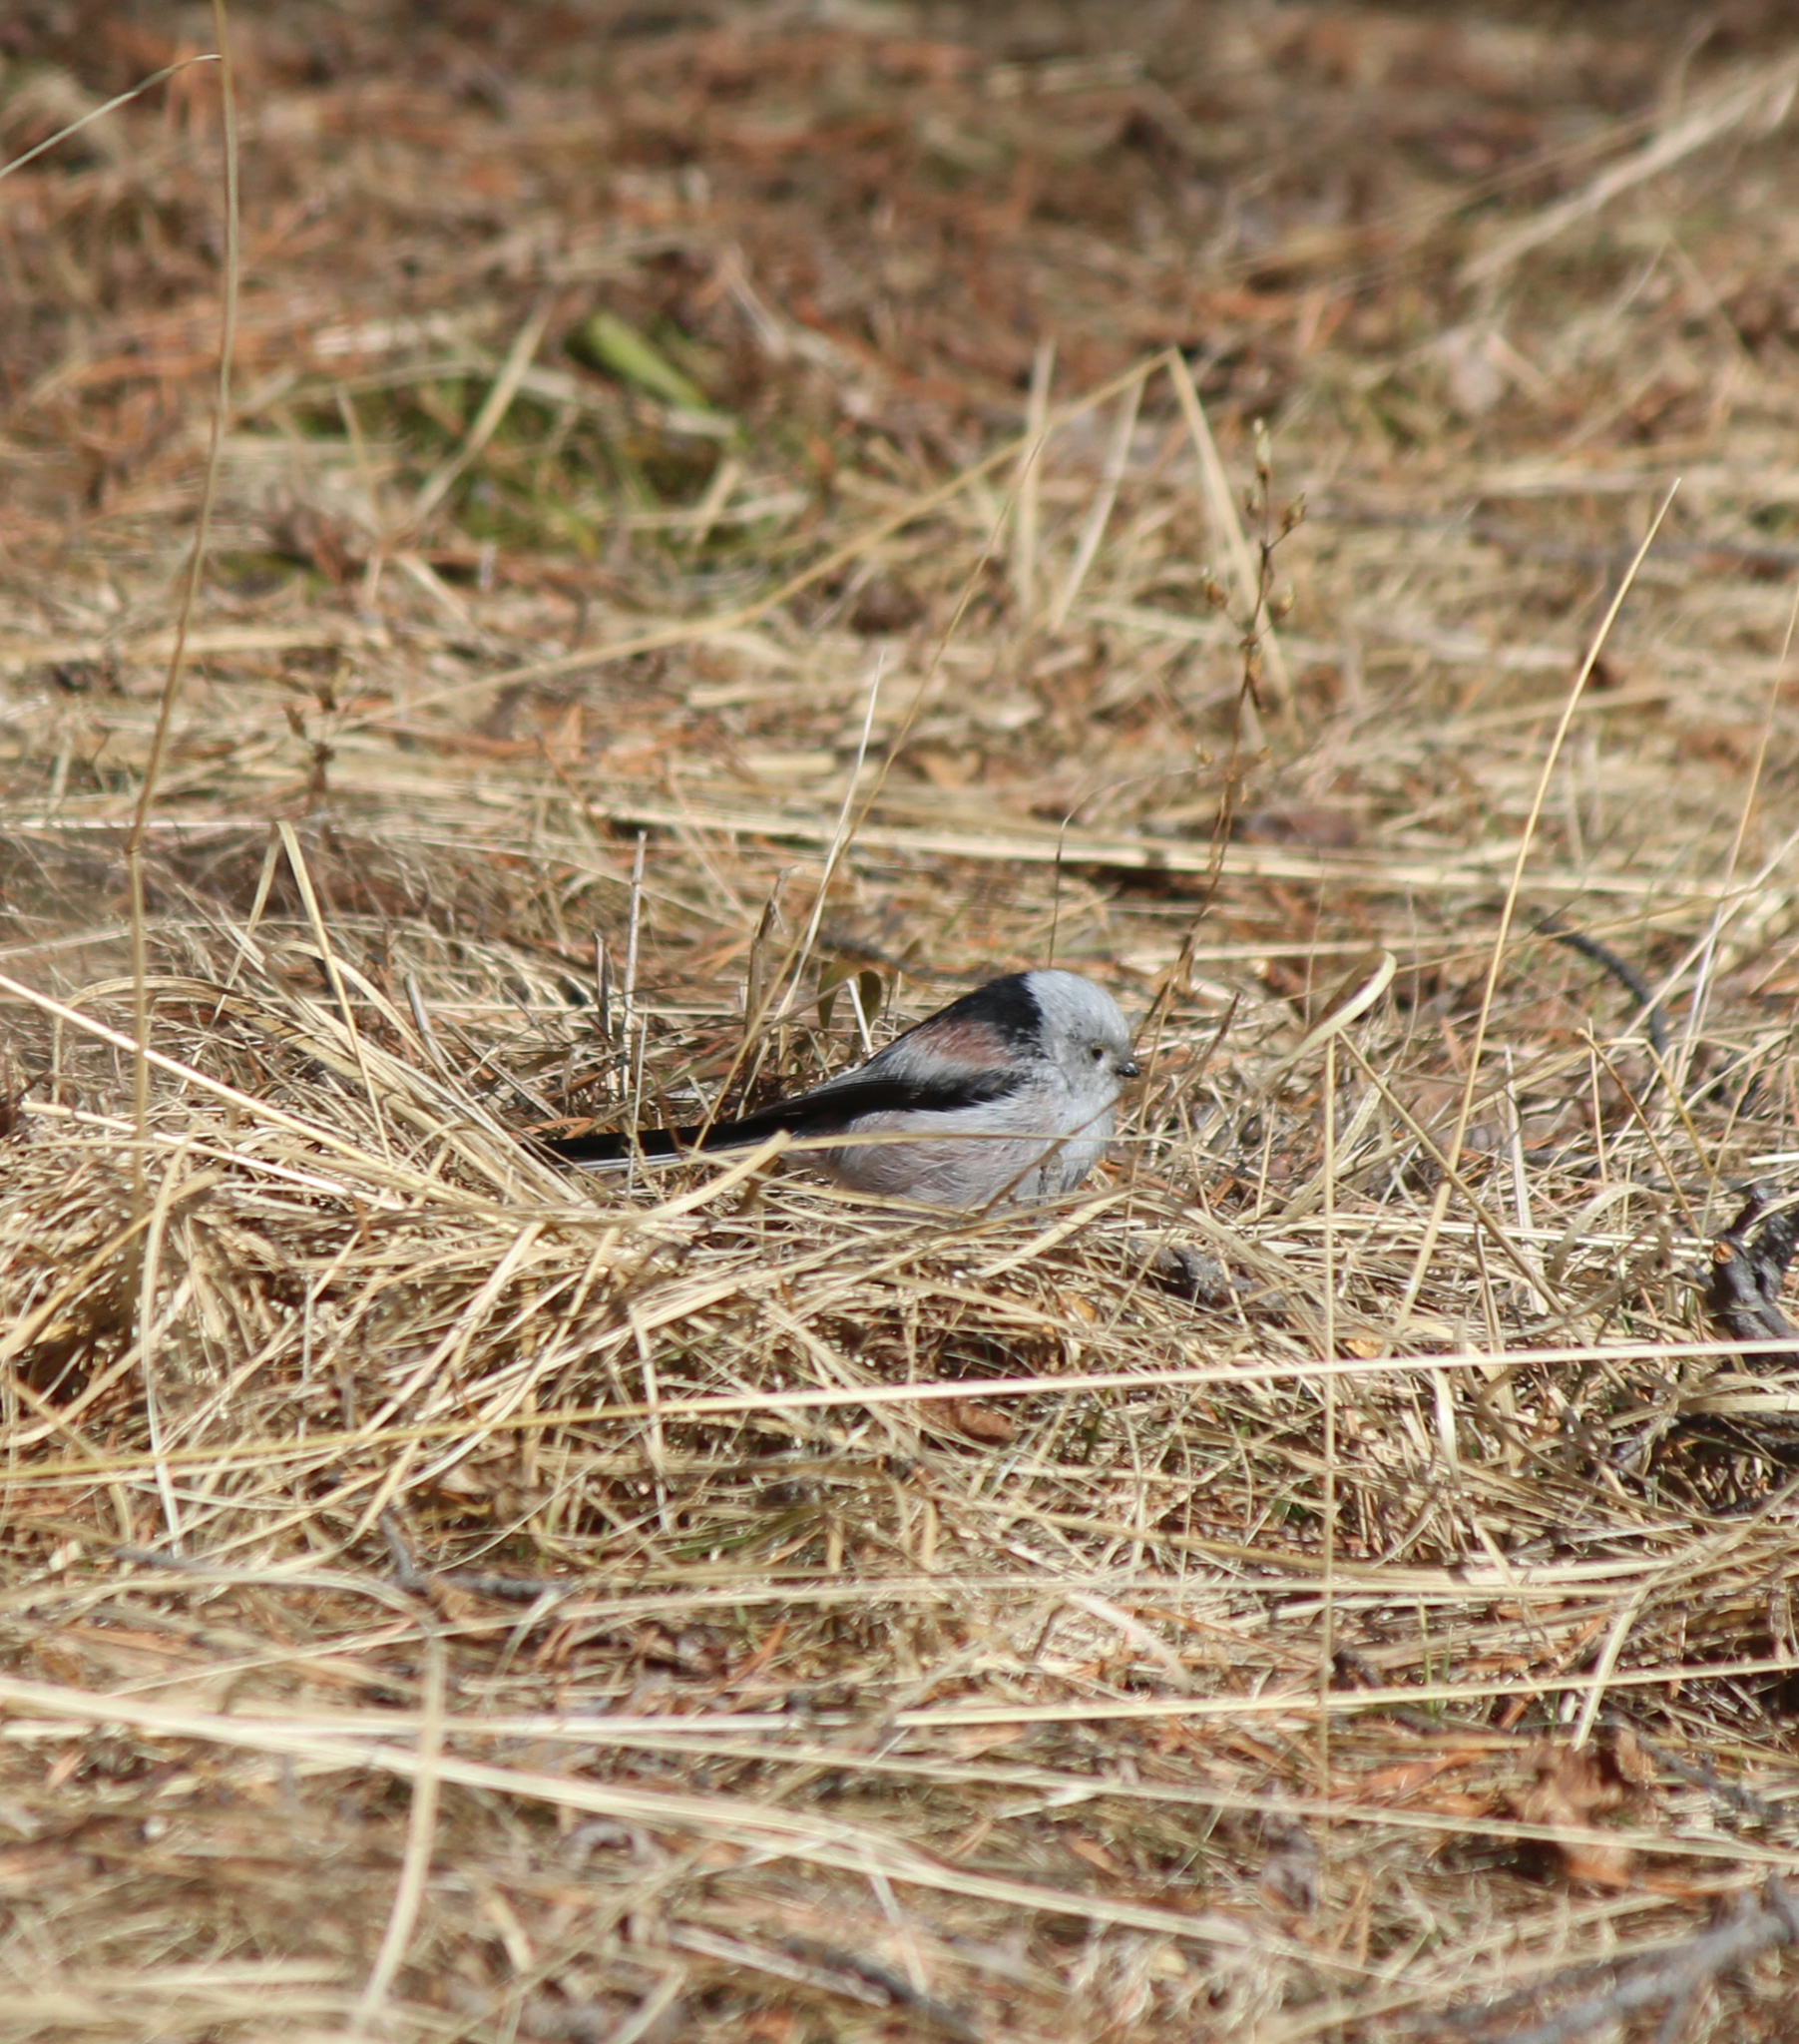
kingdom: Animalia
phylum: Chordata
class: Aves
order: Passeriformes
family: Aegithalidae
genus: Aegithalos
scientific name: Aegithalos caudatus
